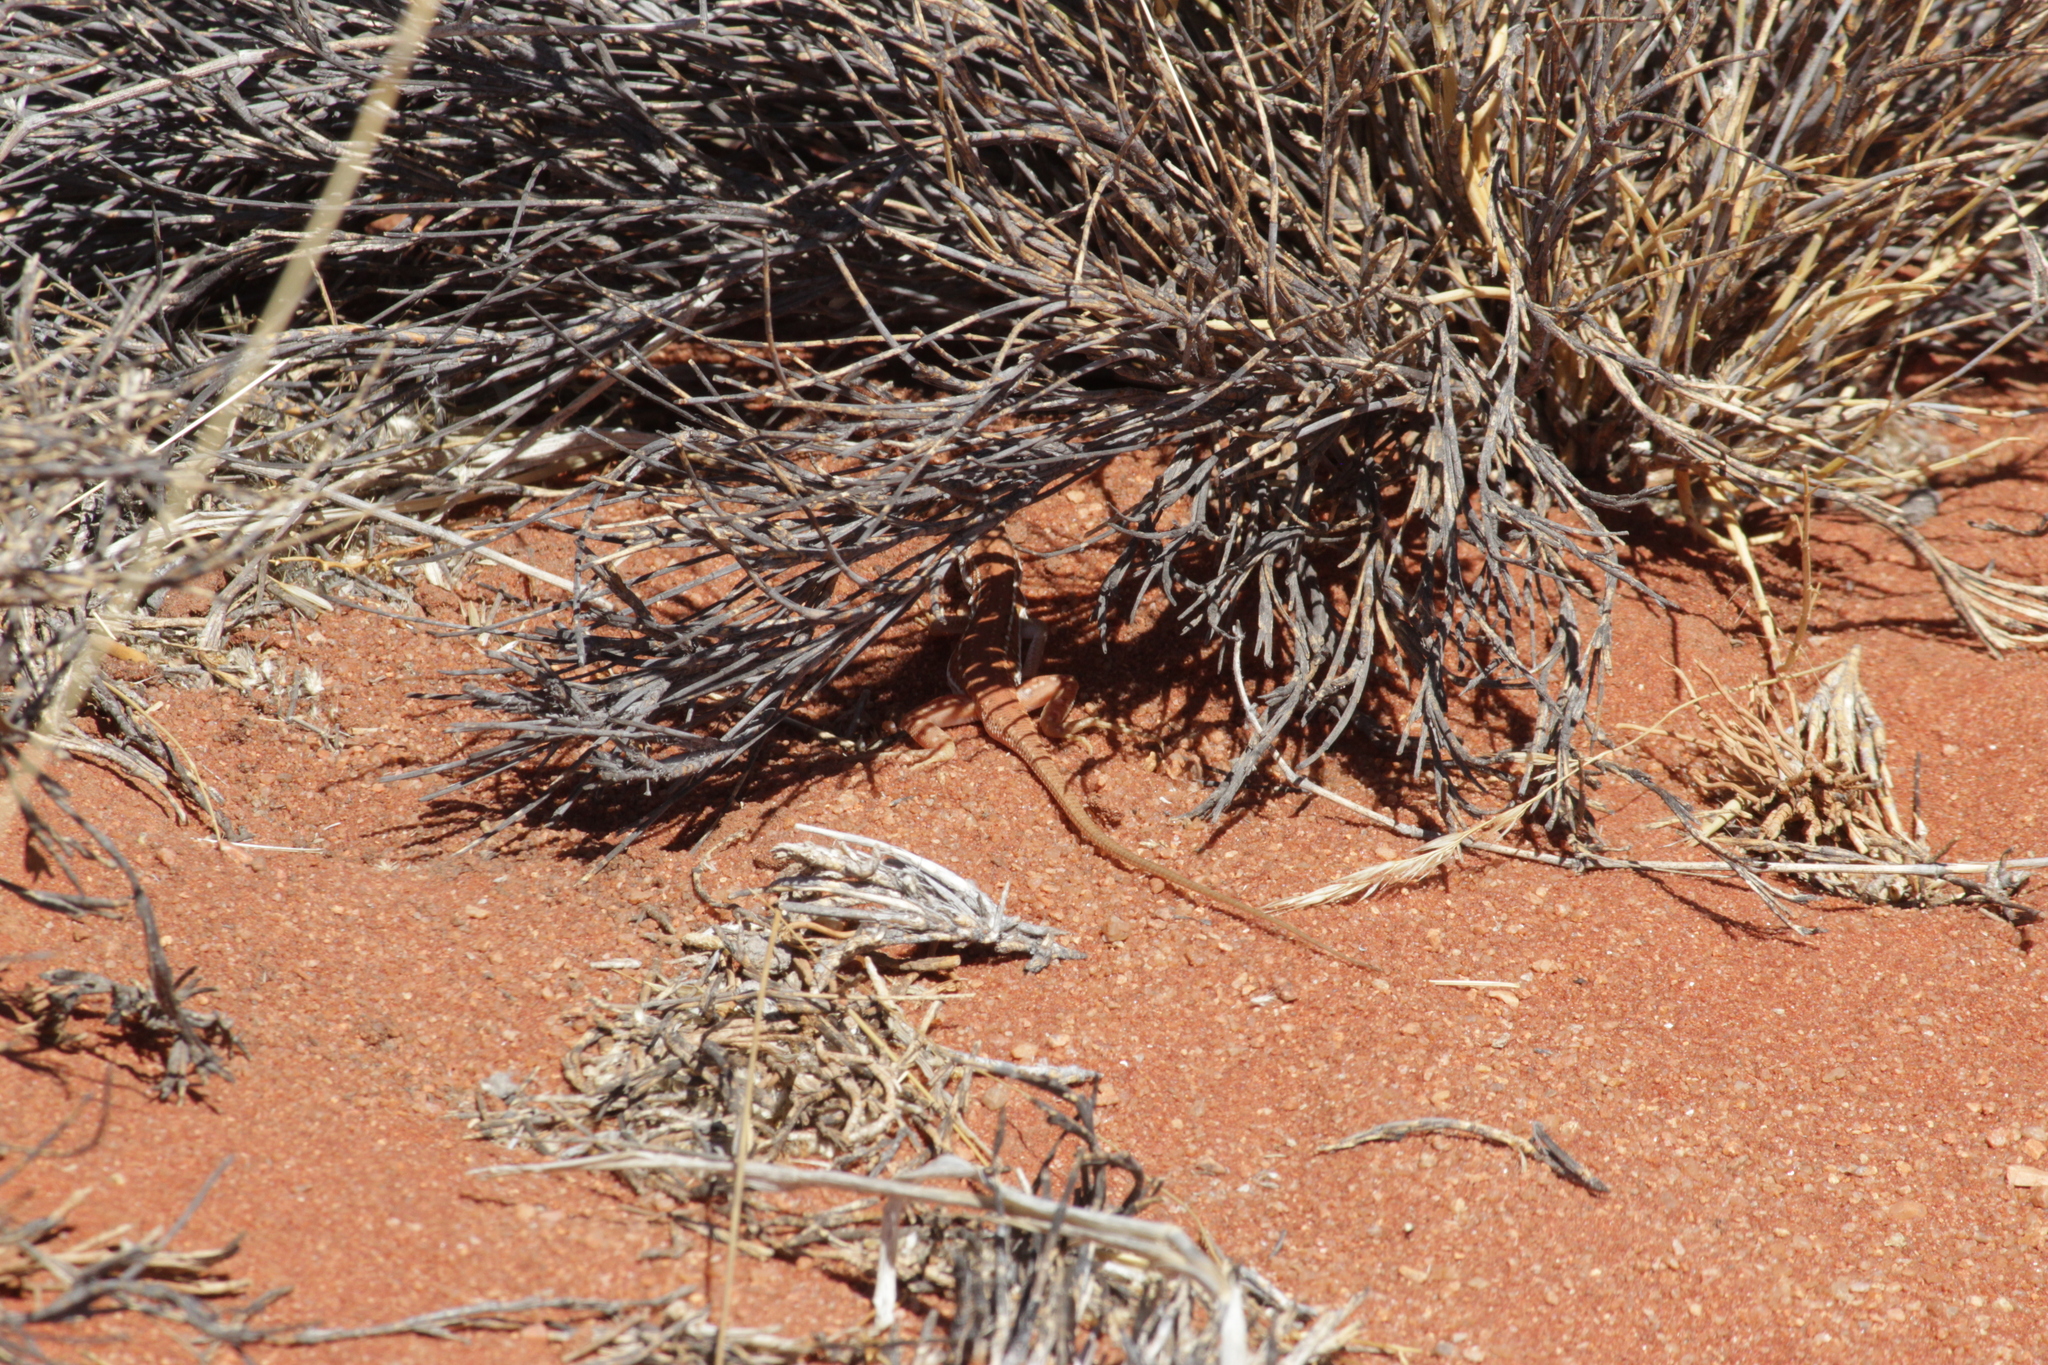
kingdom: Animalia
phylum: Chordata
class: Squamata
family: Lacertidae
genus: Pedioplanis
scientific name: Pedioplanis lineoocellata
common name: Spotted sand lizard
